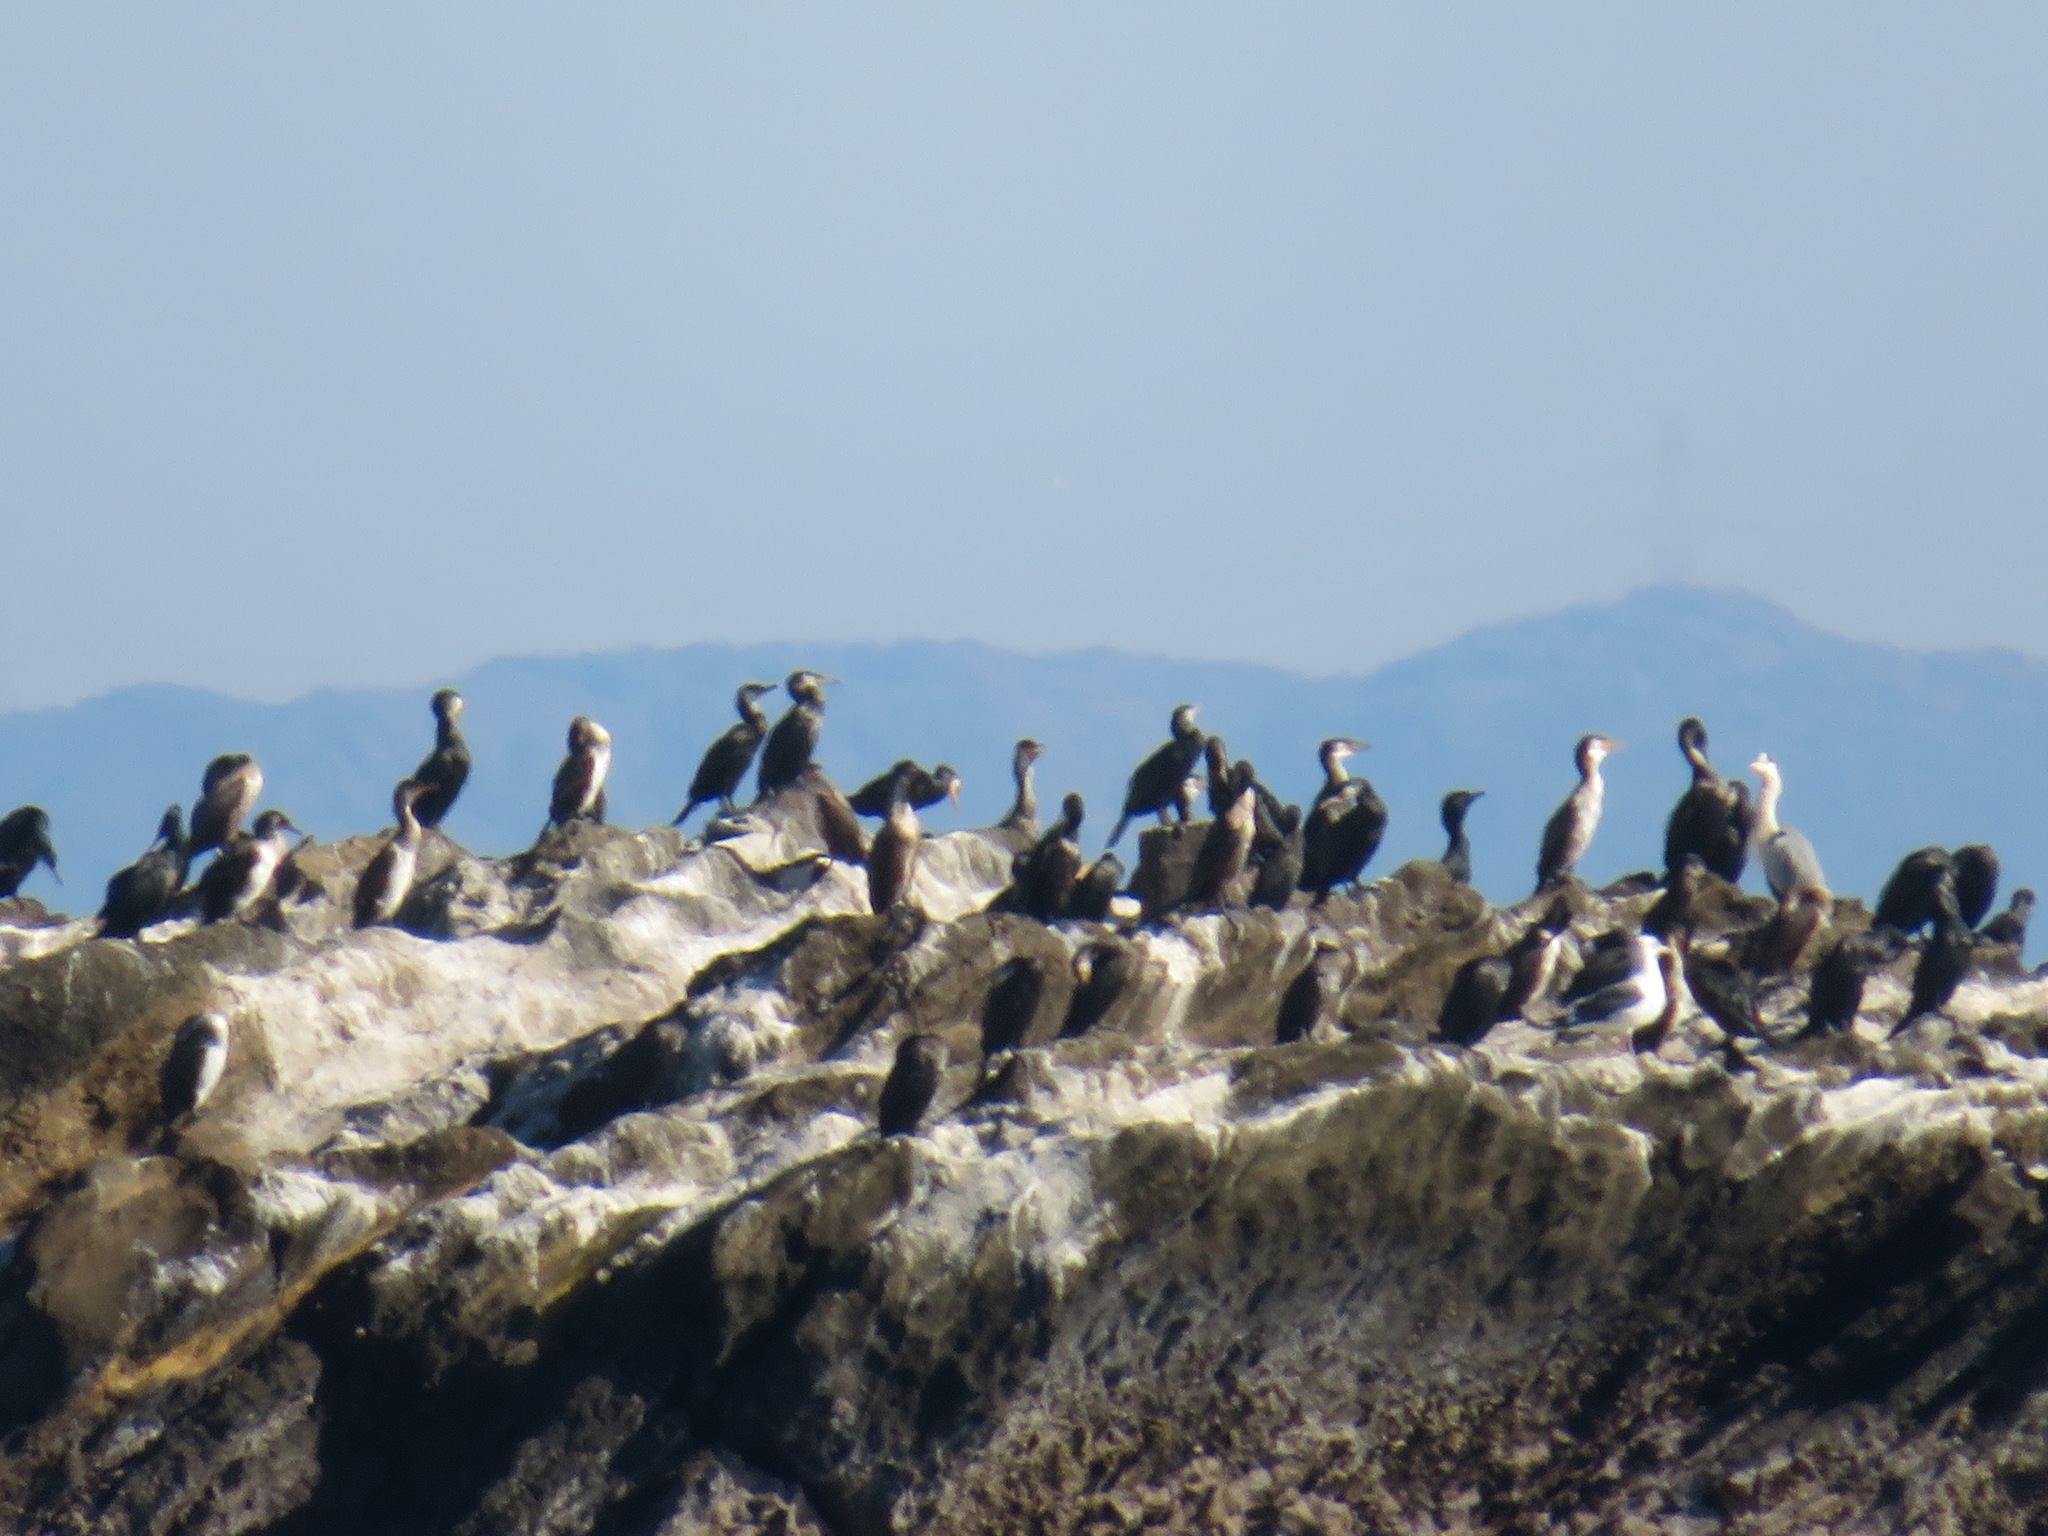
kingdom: Animalia
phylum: Chordata
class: Aves
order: Suliformes
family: Phalacrocoracidae
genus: Phalacrocorax
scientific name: Phalacrocorax capillatus
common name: Japanese cormorant
